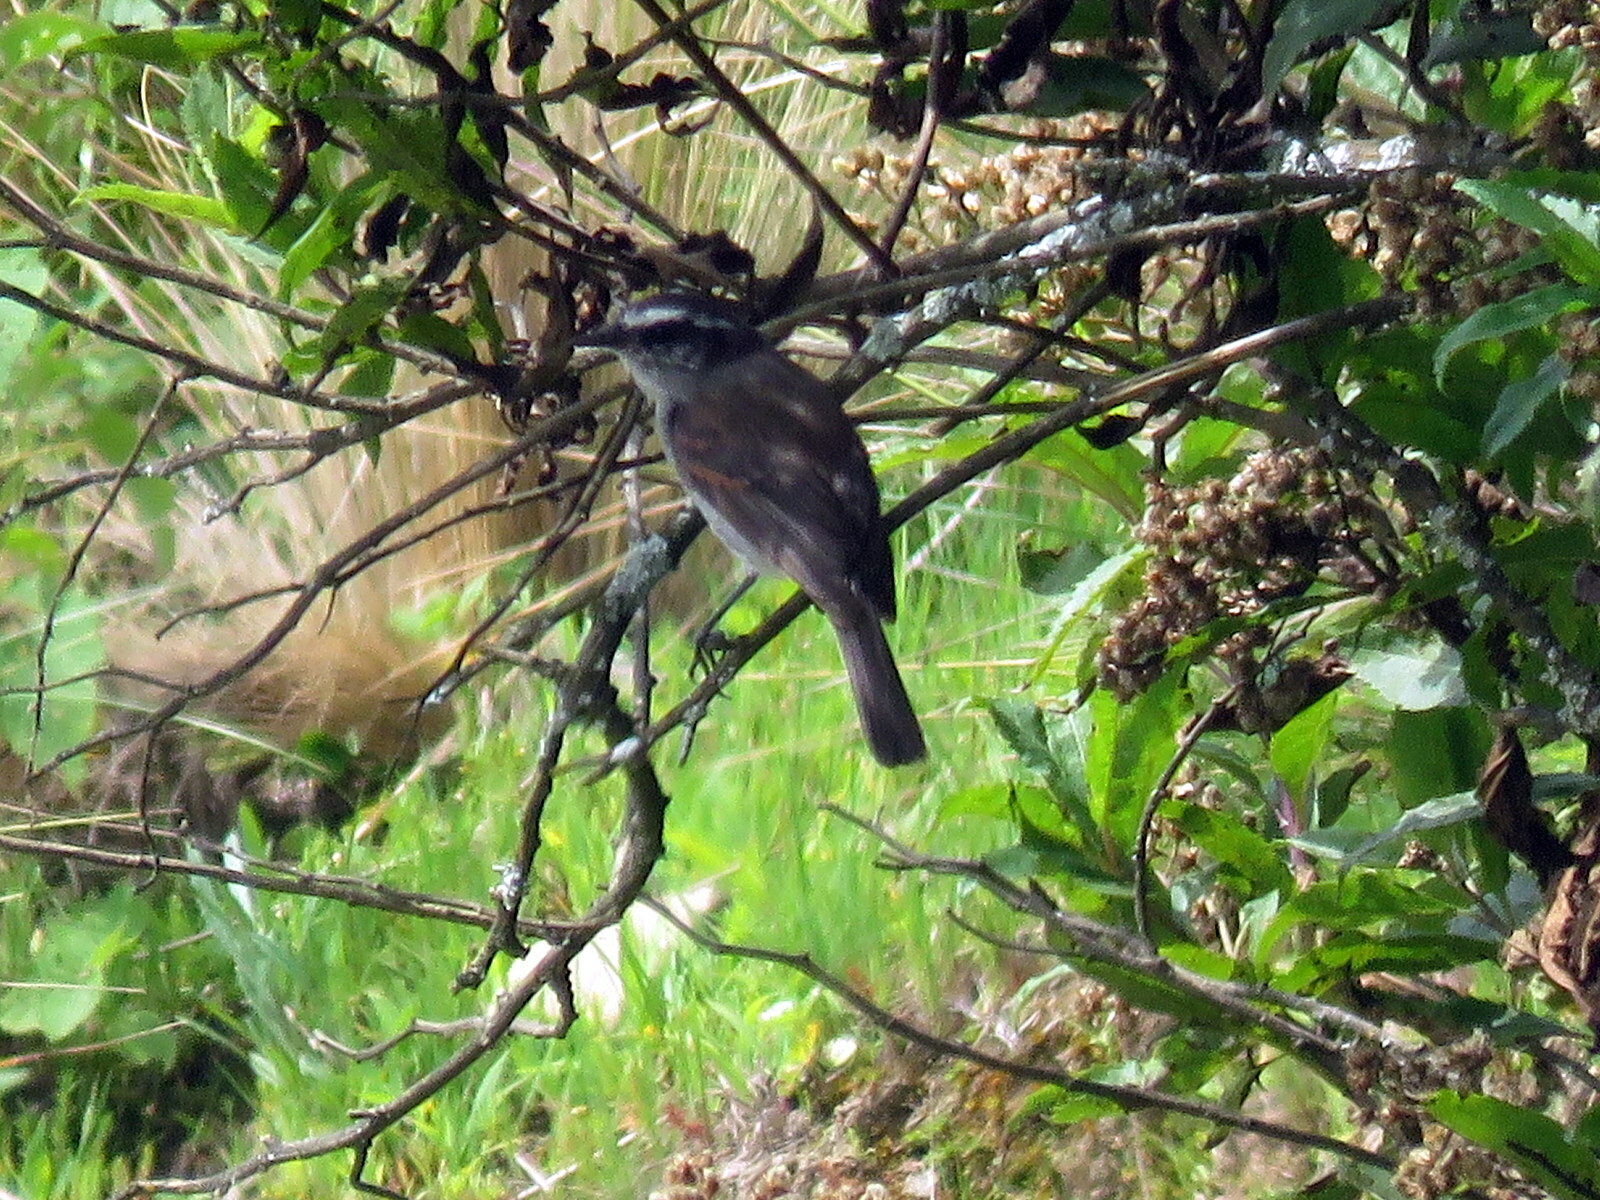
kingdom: Animalia
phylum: Chordata
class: Aves
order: Passeriformes
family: Tyrannidae
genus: Ochthoeca
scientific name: Ochthoeca leucophrys
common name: White-browed chat-tyrant
